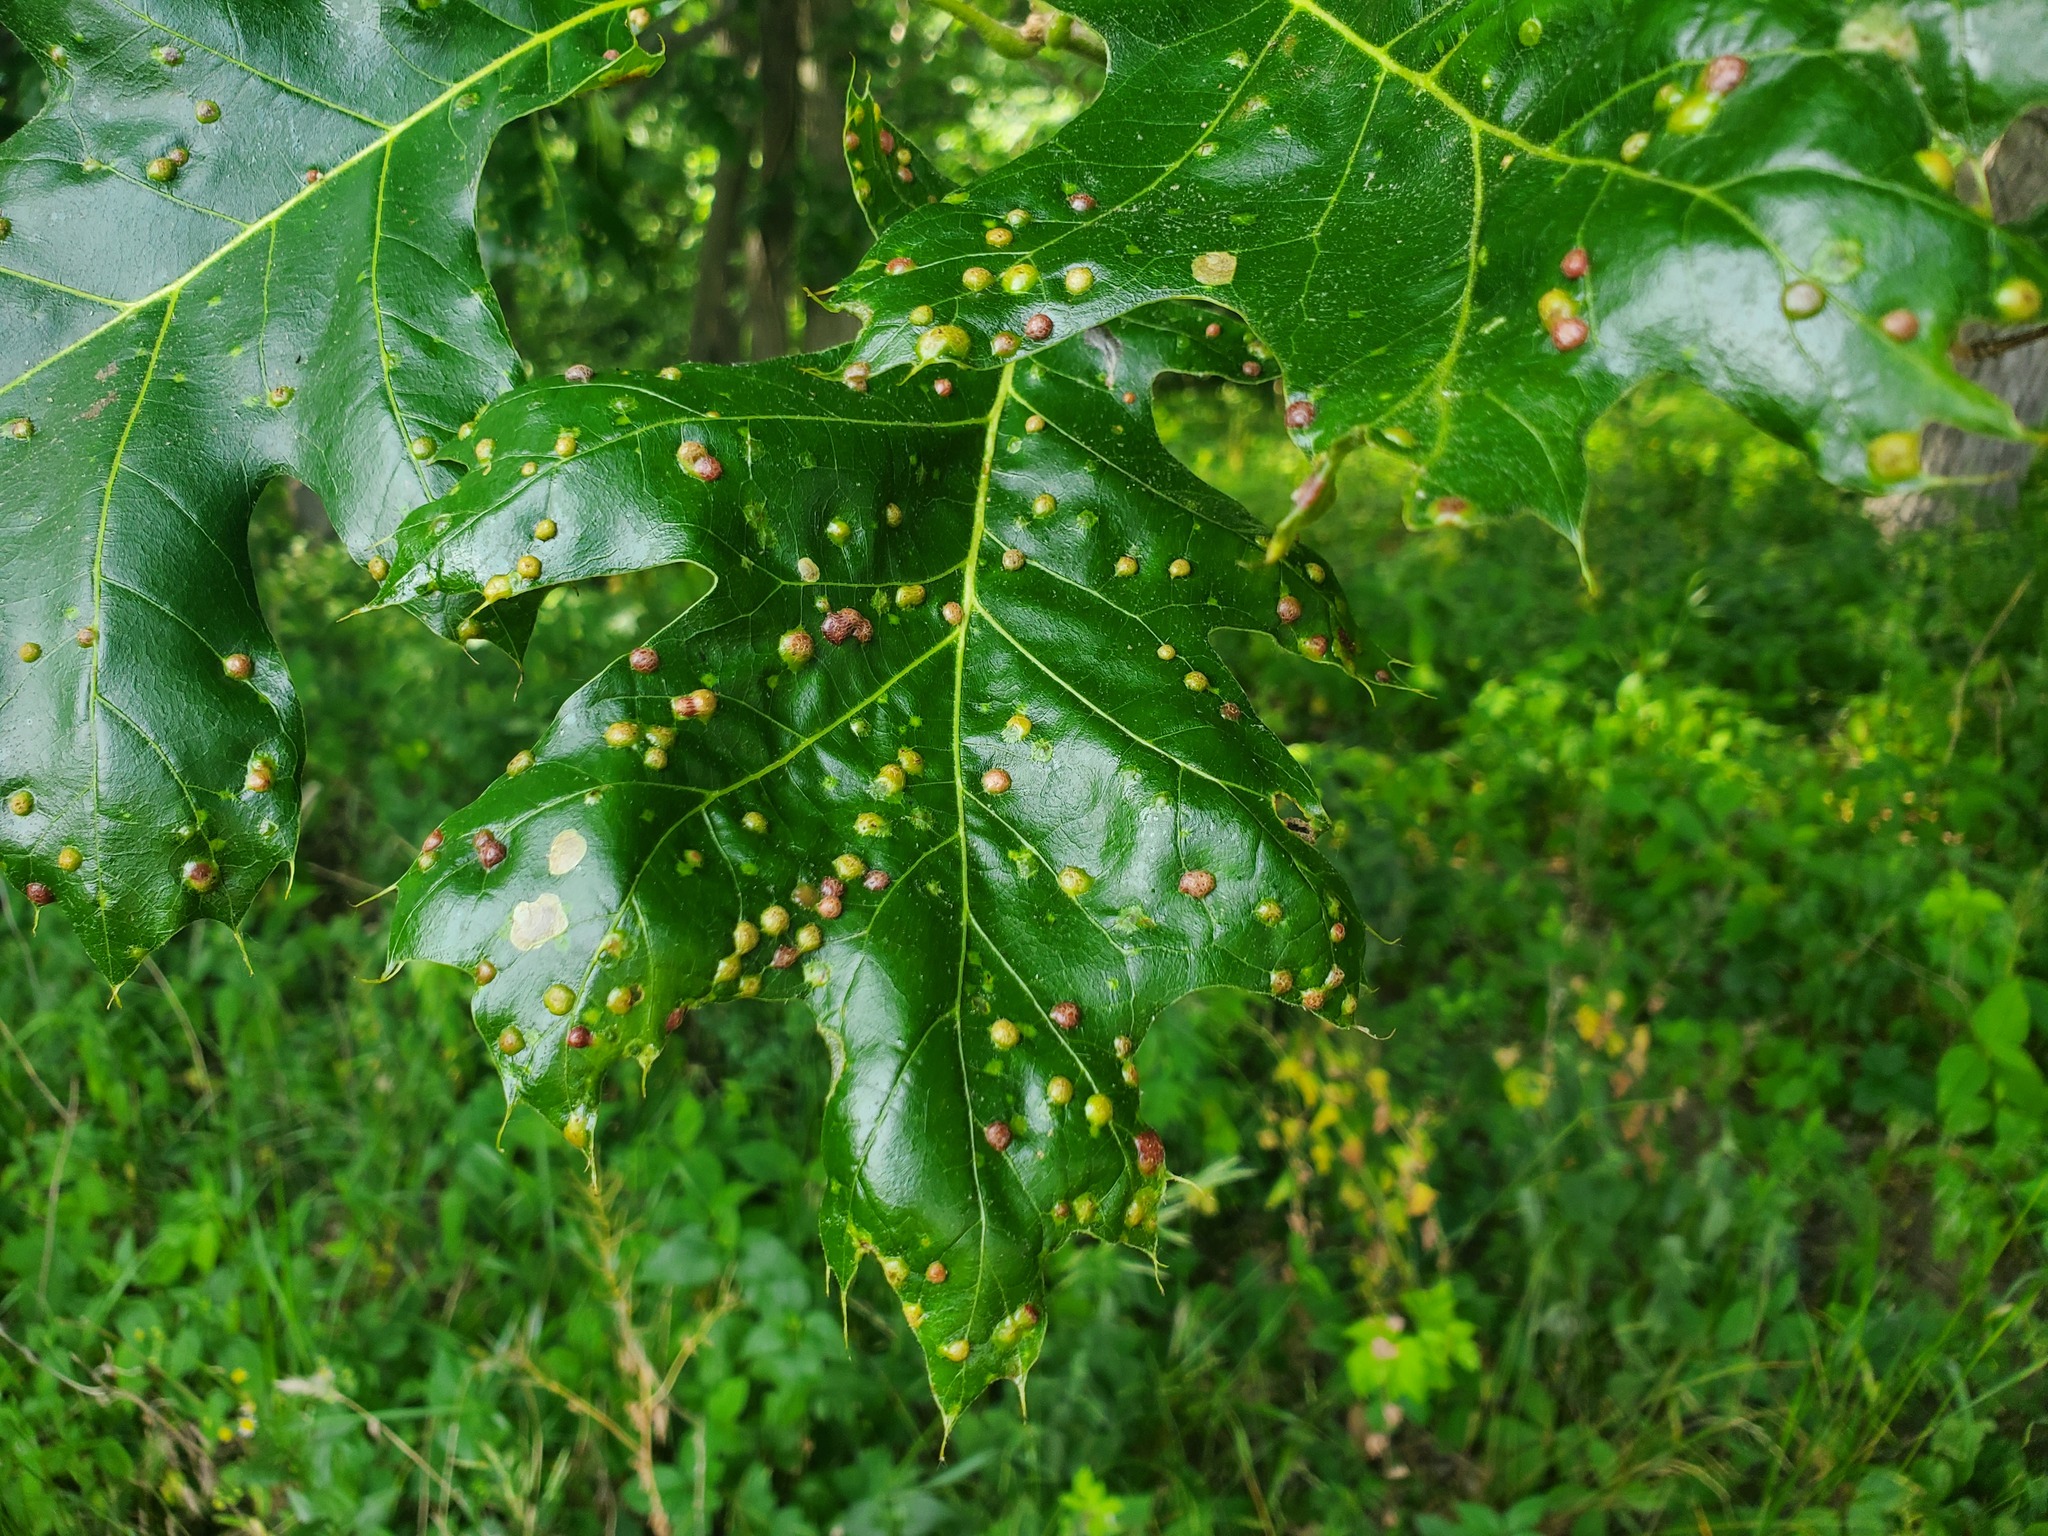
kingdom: Animalia
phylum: Arthropoda
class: Insecta
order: Diptera
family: Cecidomyiidae
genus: Polystepha
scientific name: Polystepha pilulae
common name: Oak leaf gall midge
